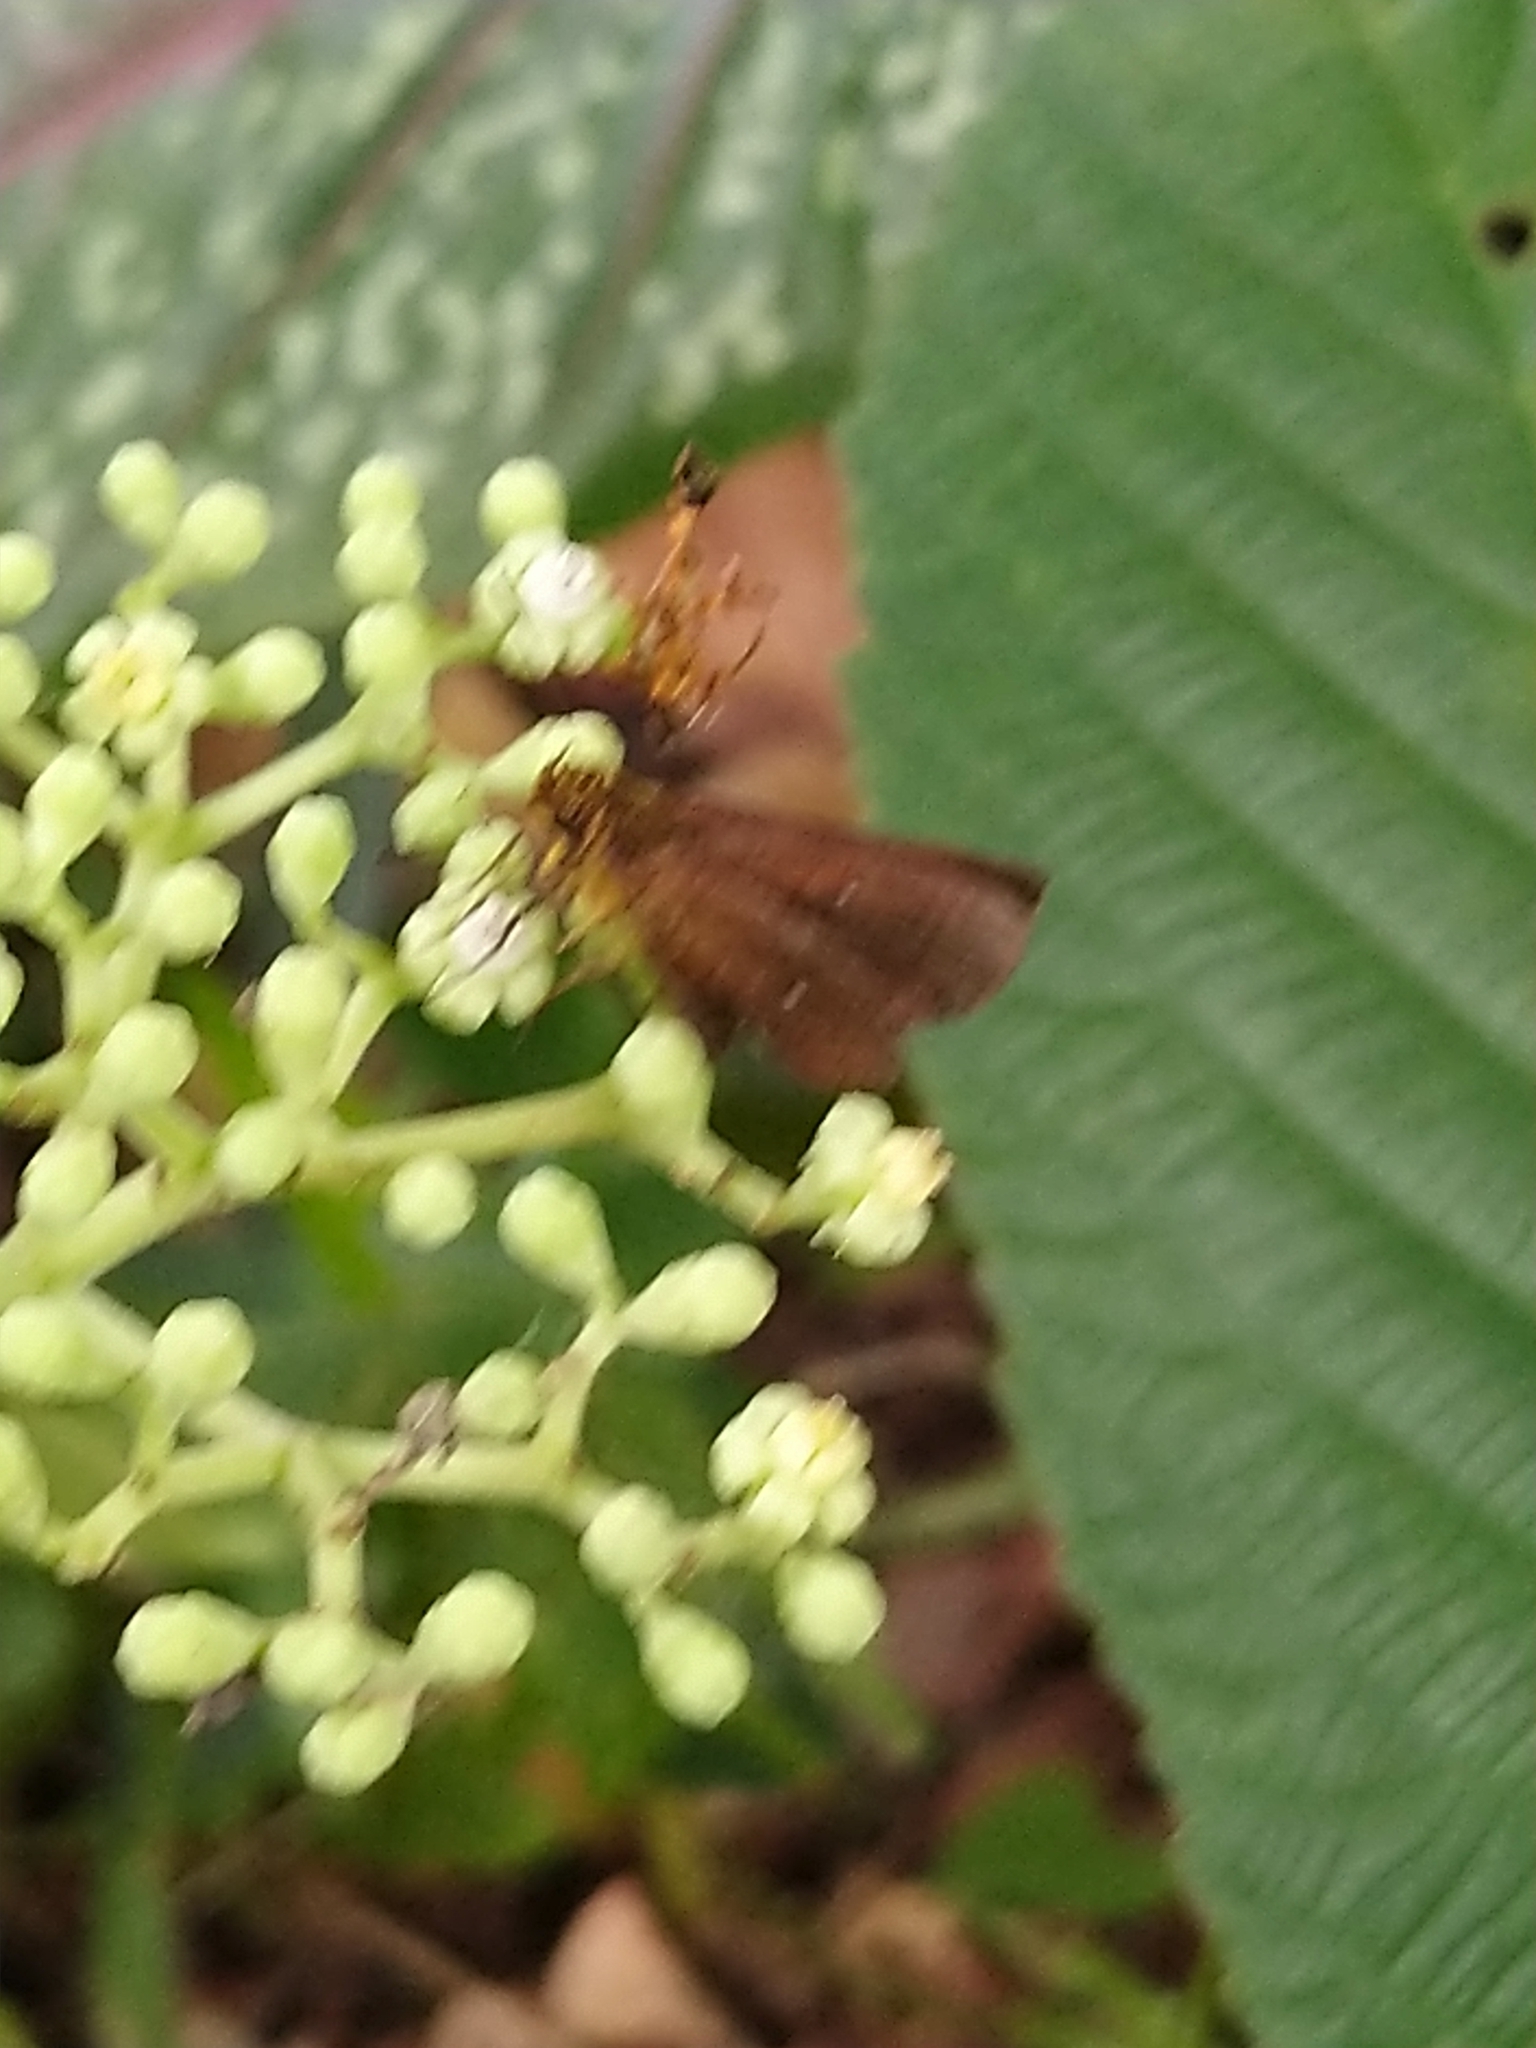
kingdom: Animalia
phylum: Arthropoda
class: Insecta
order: Lepidoptera
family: Hesperiidae
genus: Iambrix
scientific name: Iambrix salsala
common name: Chestnut bob
